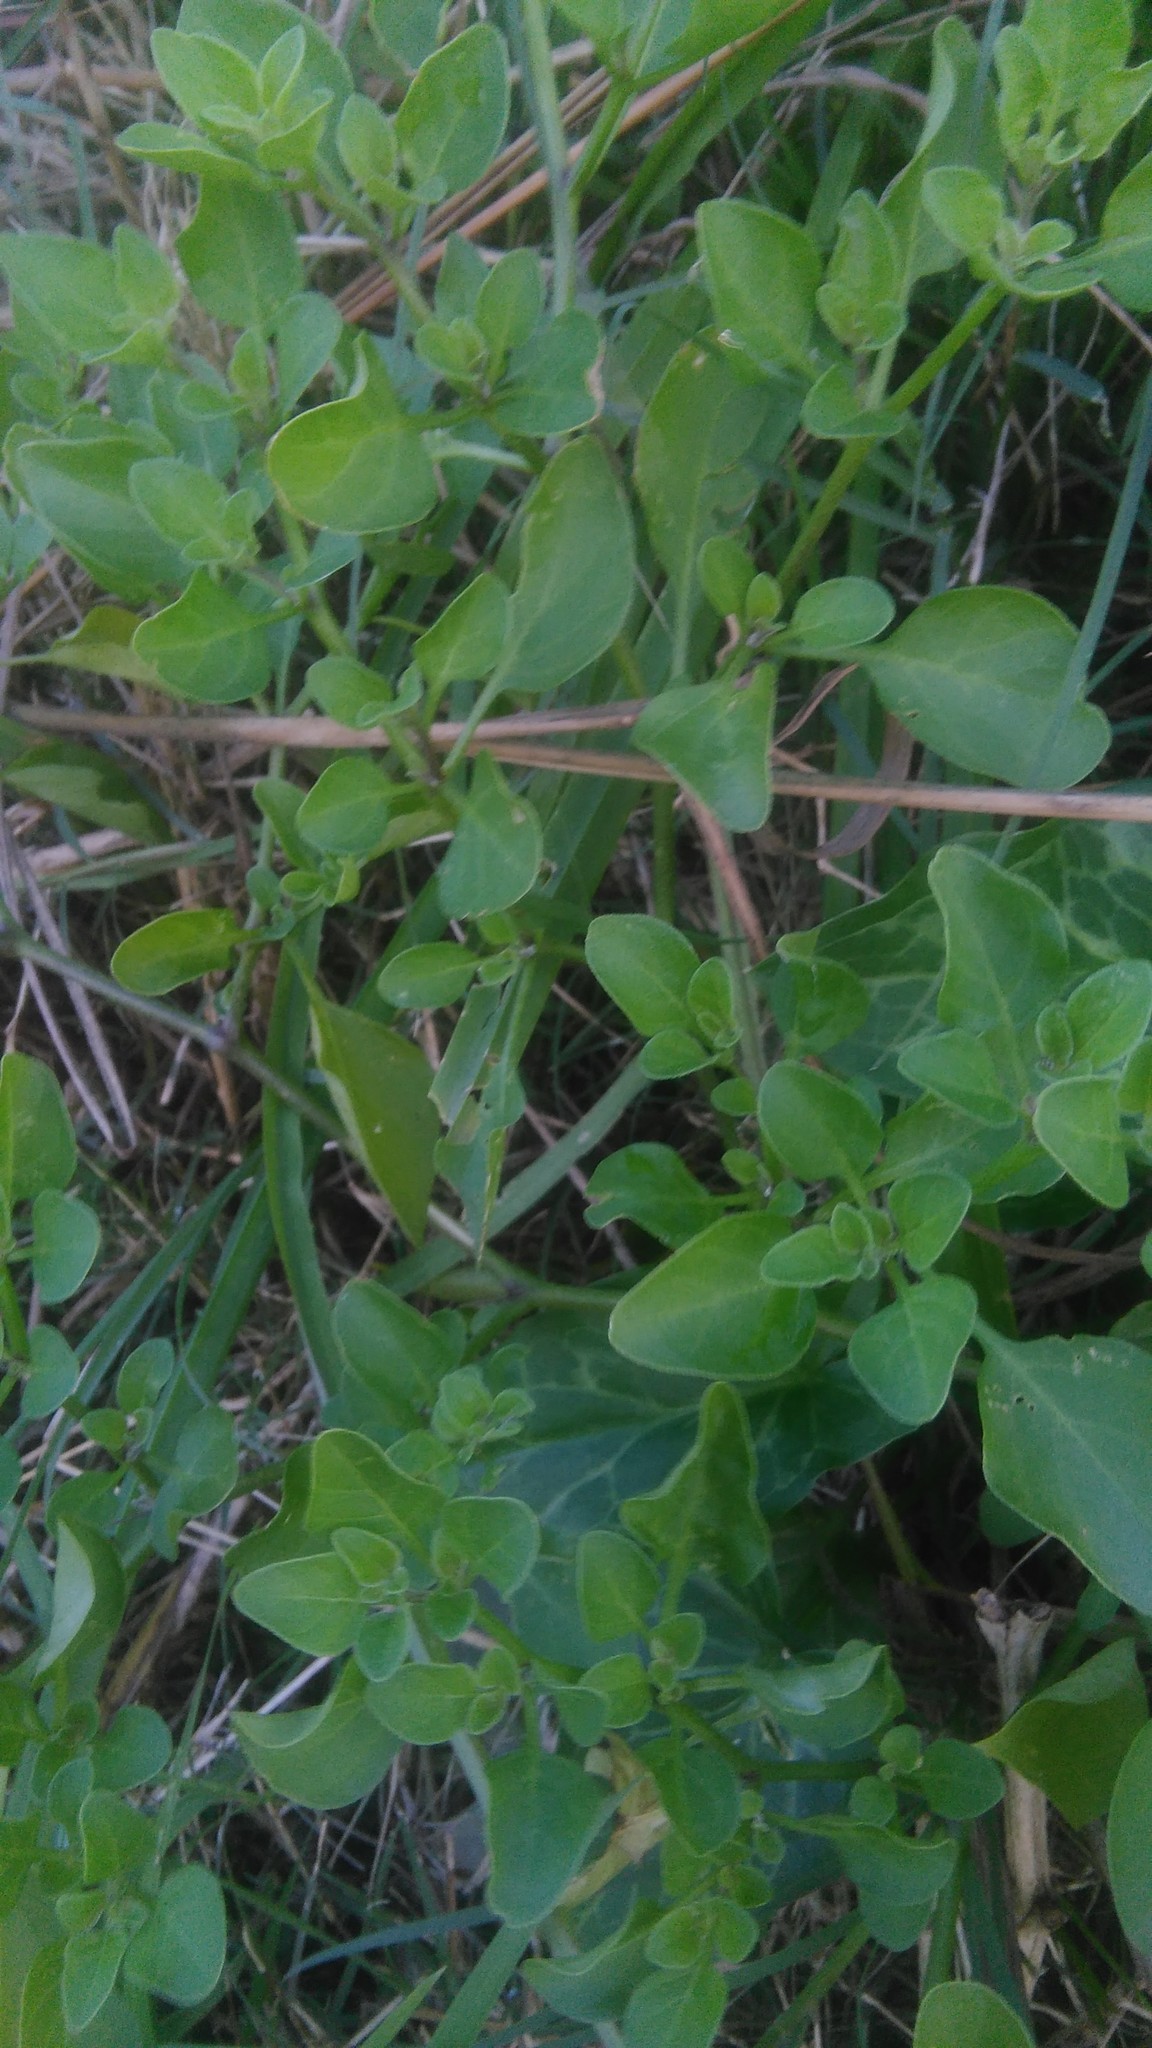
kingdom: Plantae
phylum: Tracheophyta
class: Magnoliopsida
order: Solanales
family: Solanaceae
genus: Salpichroa
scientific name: Salpichroa origanifolia
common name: Lily-of-the-valley-vine
